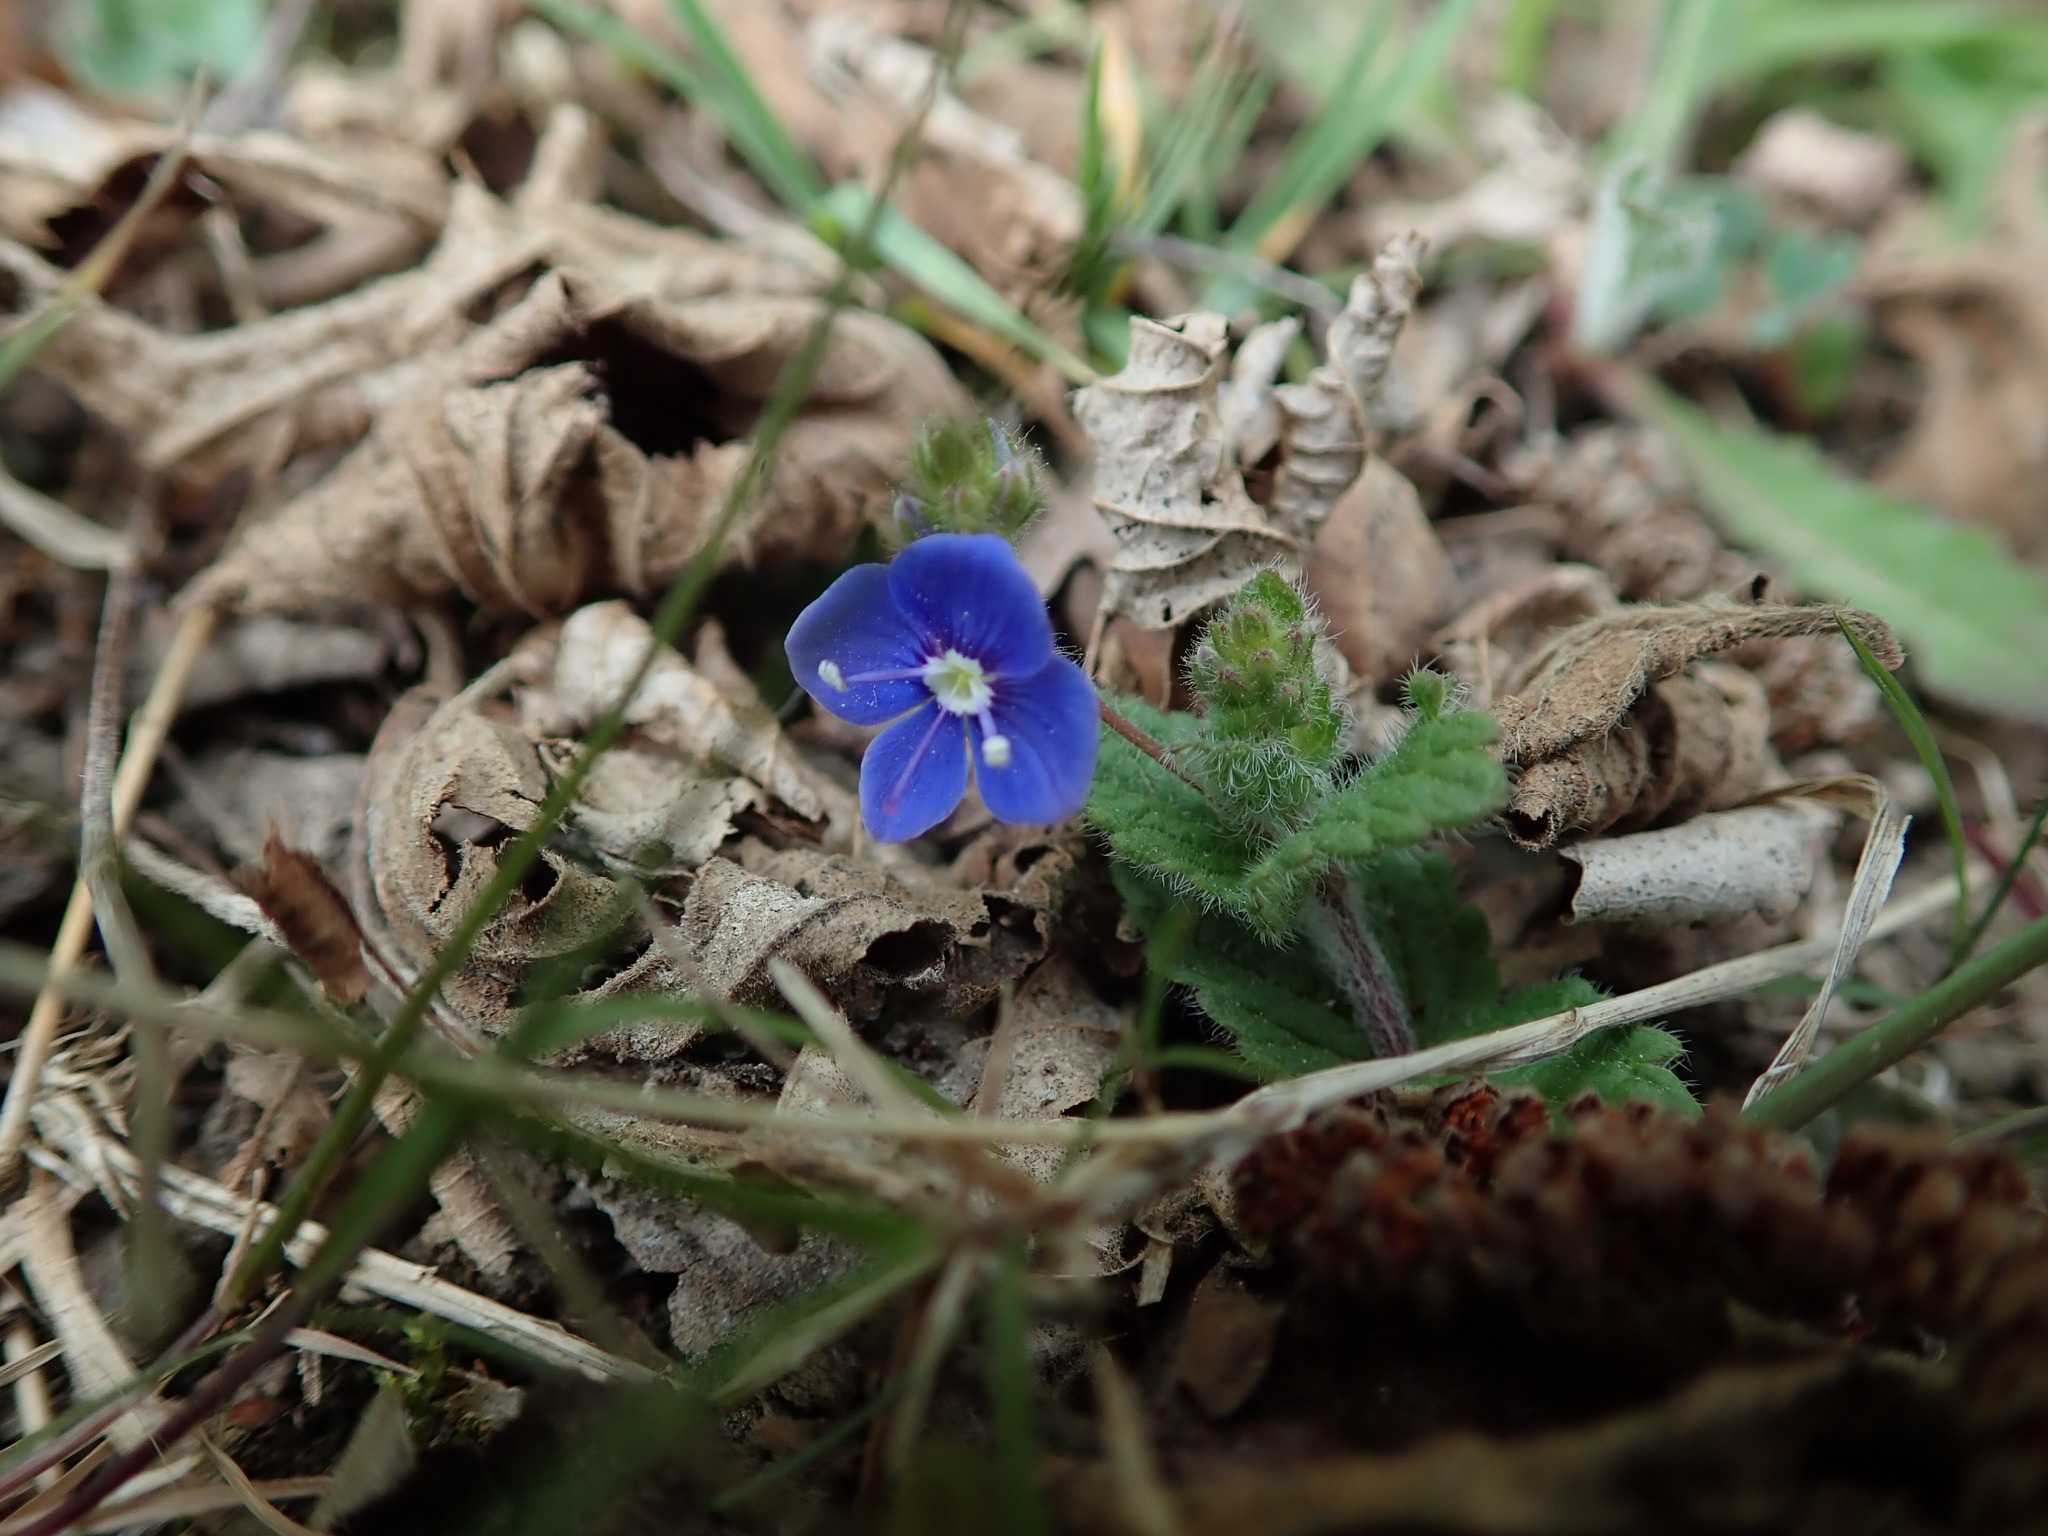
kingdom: Plantae
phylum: Tracheophyta
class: Magnoliopsida
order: Lamiales
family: Plantaginaceae
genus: Veronica
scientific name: Veronica chamaedrys
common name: Germander speedwell
